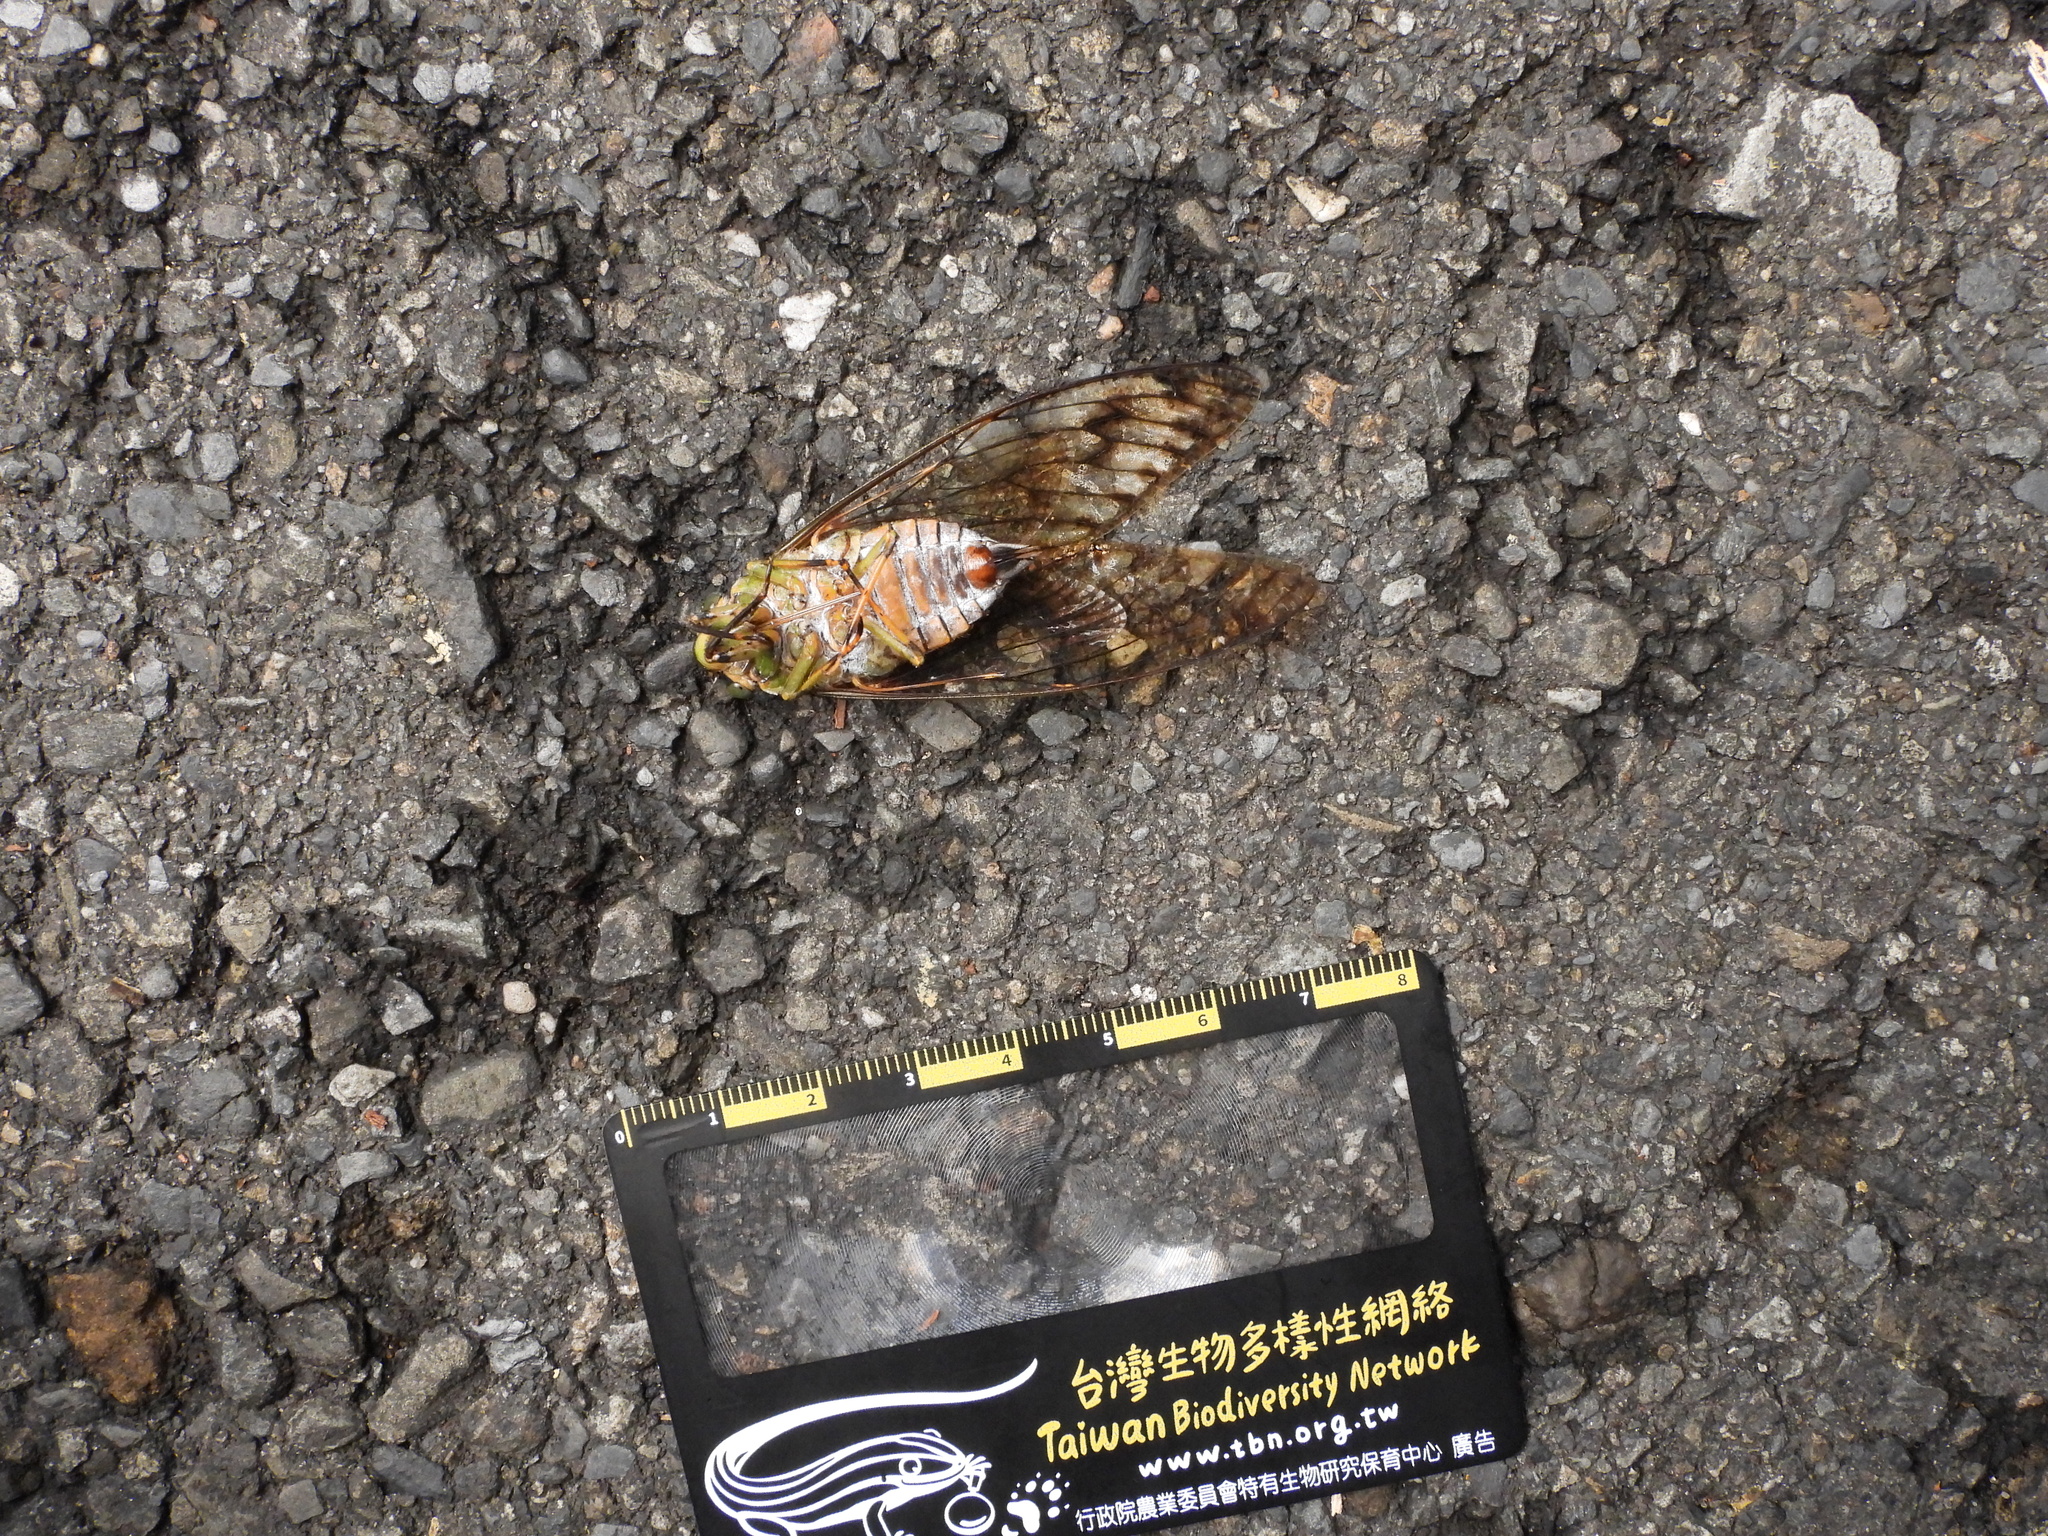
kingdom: Animalia
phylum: Arthropoda
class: Insecta
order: Hemiptera
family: Cicadidae
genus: Pomponia
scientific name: Pomponia yayeyamana
